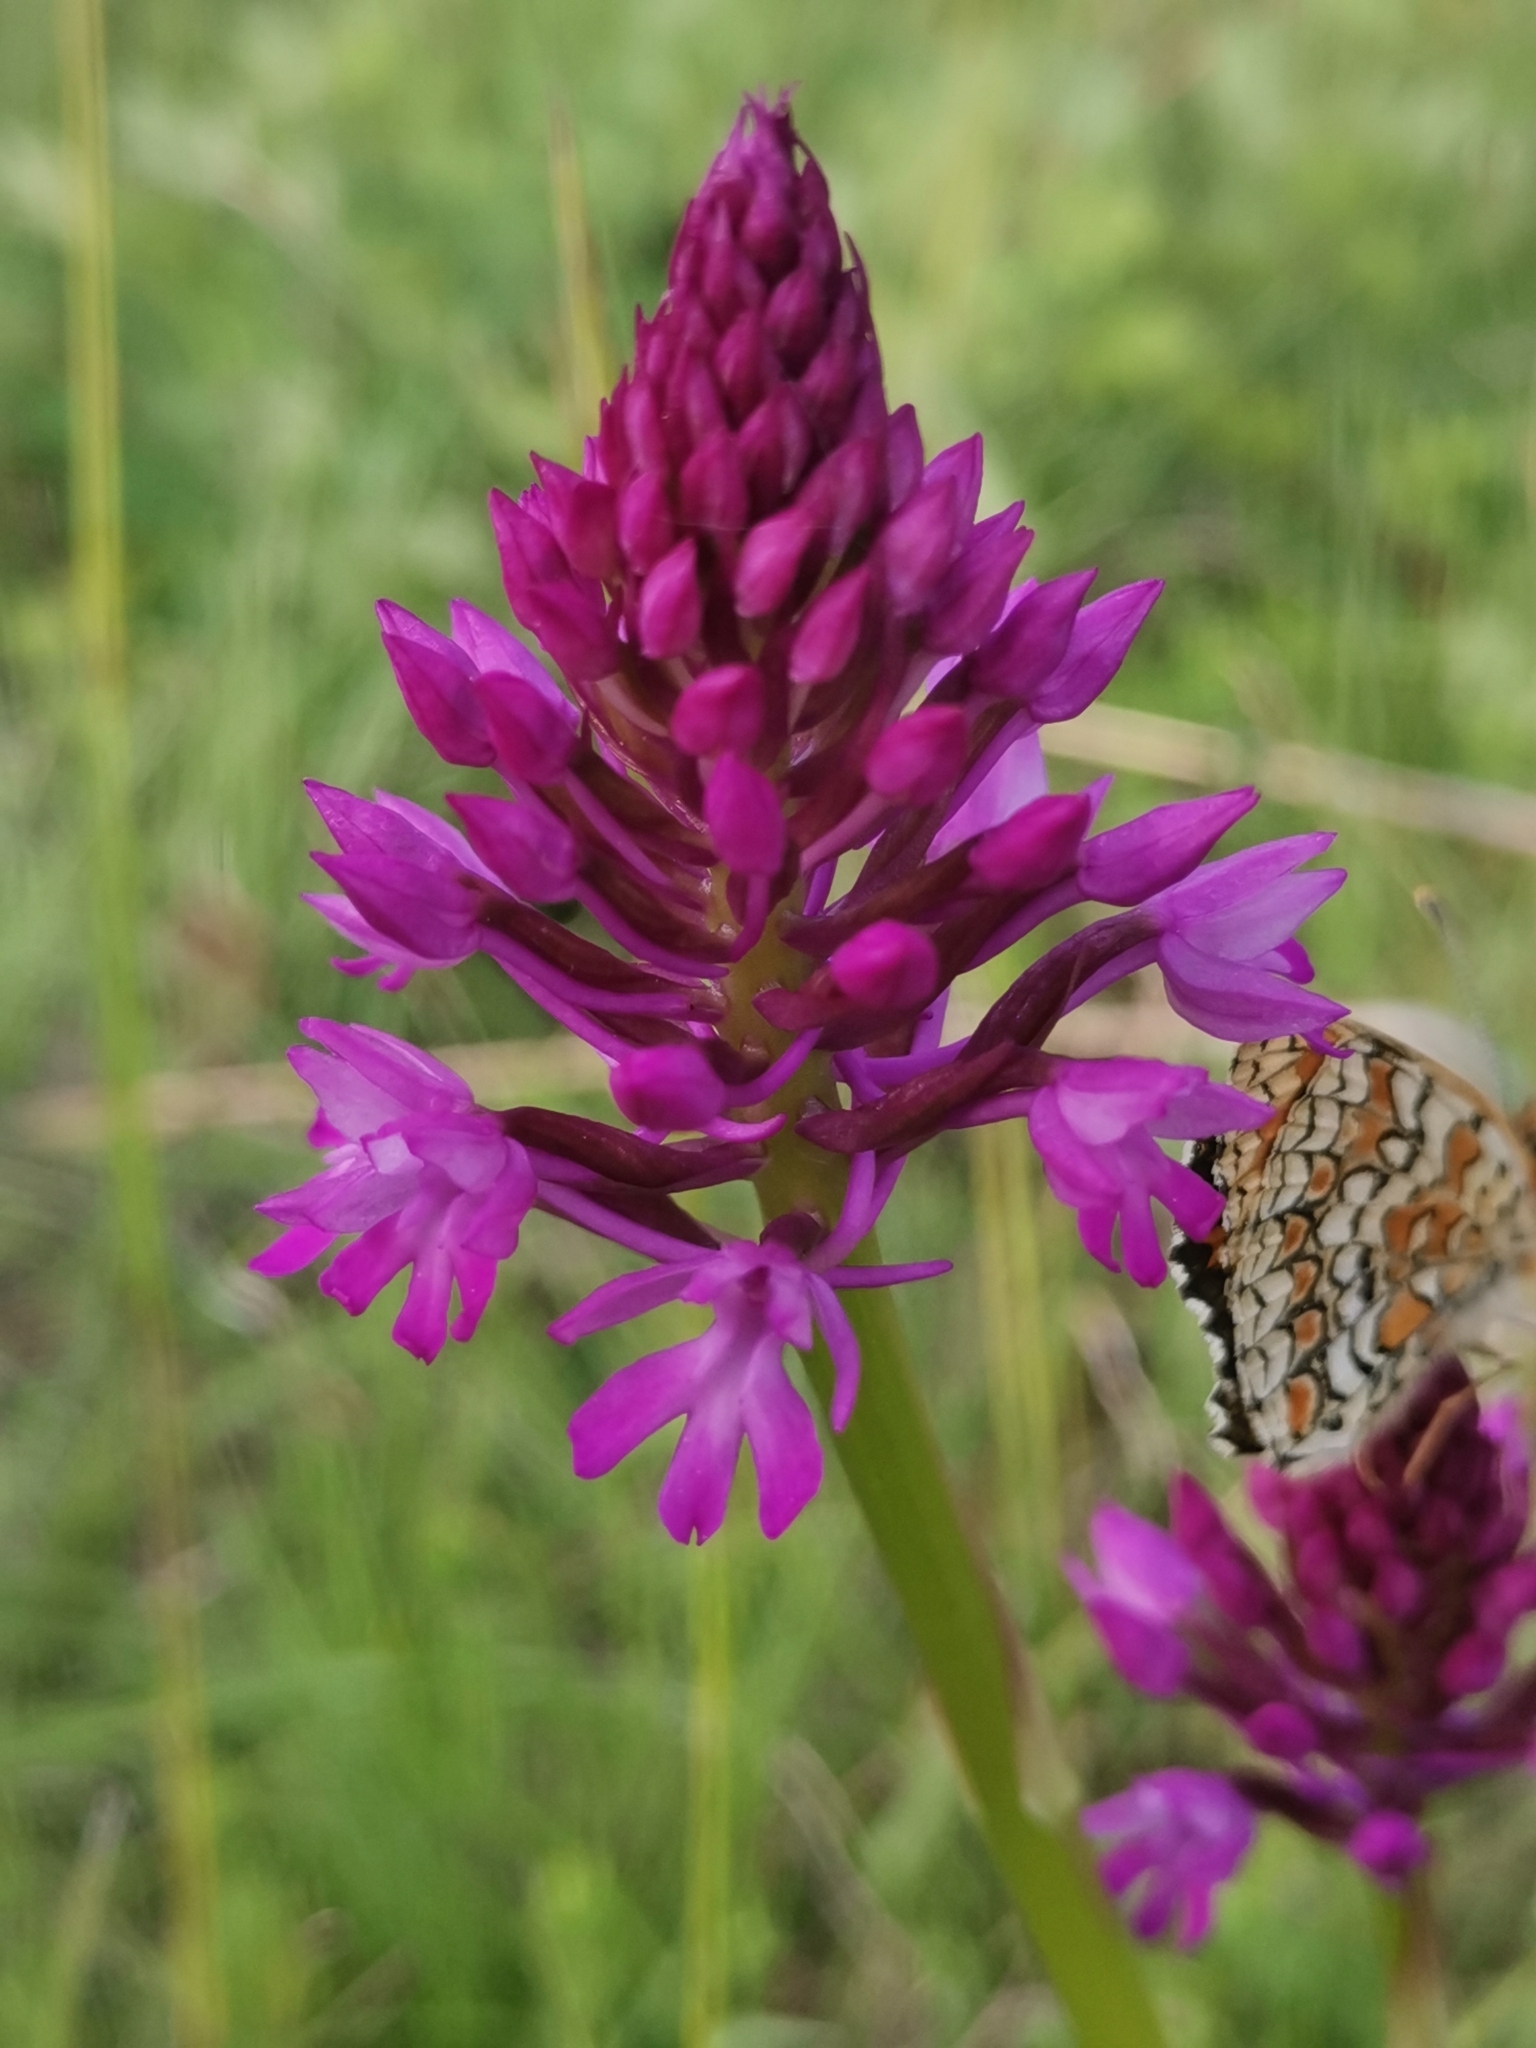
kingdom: Plantae
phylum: Tracheophyta
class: Liliopsida
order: Asparagales
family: Orchidaceae
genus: Anacamptis
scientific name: Anacamptis pyramidalis
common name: Pyramidal orchid
